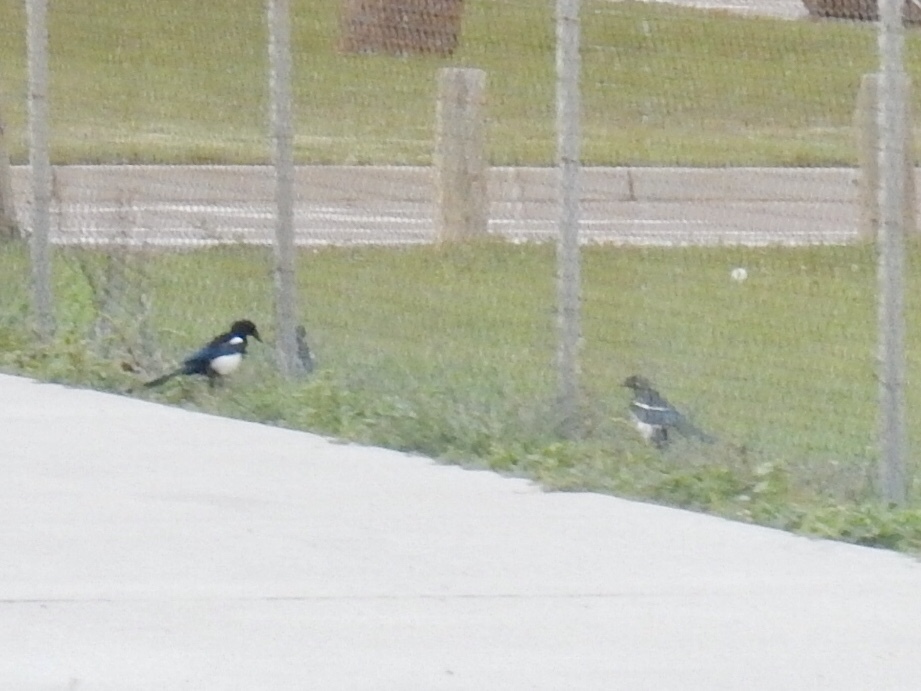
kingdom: Animalia
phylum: Chordata
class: Aves
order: Passeriformes
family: Corvidae
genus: Pica
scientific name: Pica hudsonia
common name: Black-billed magpie
